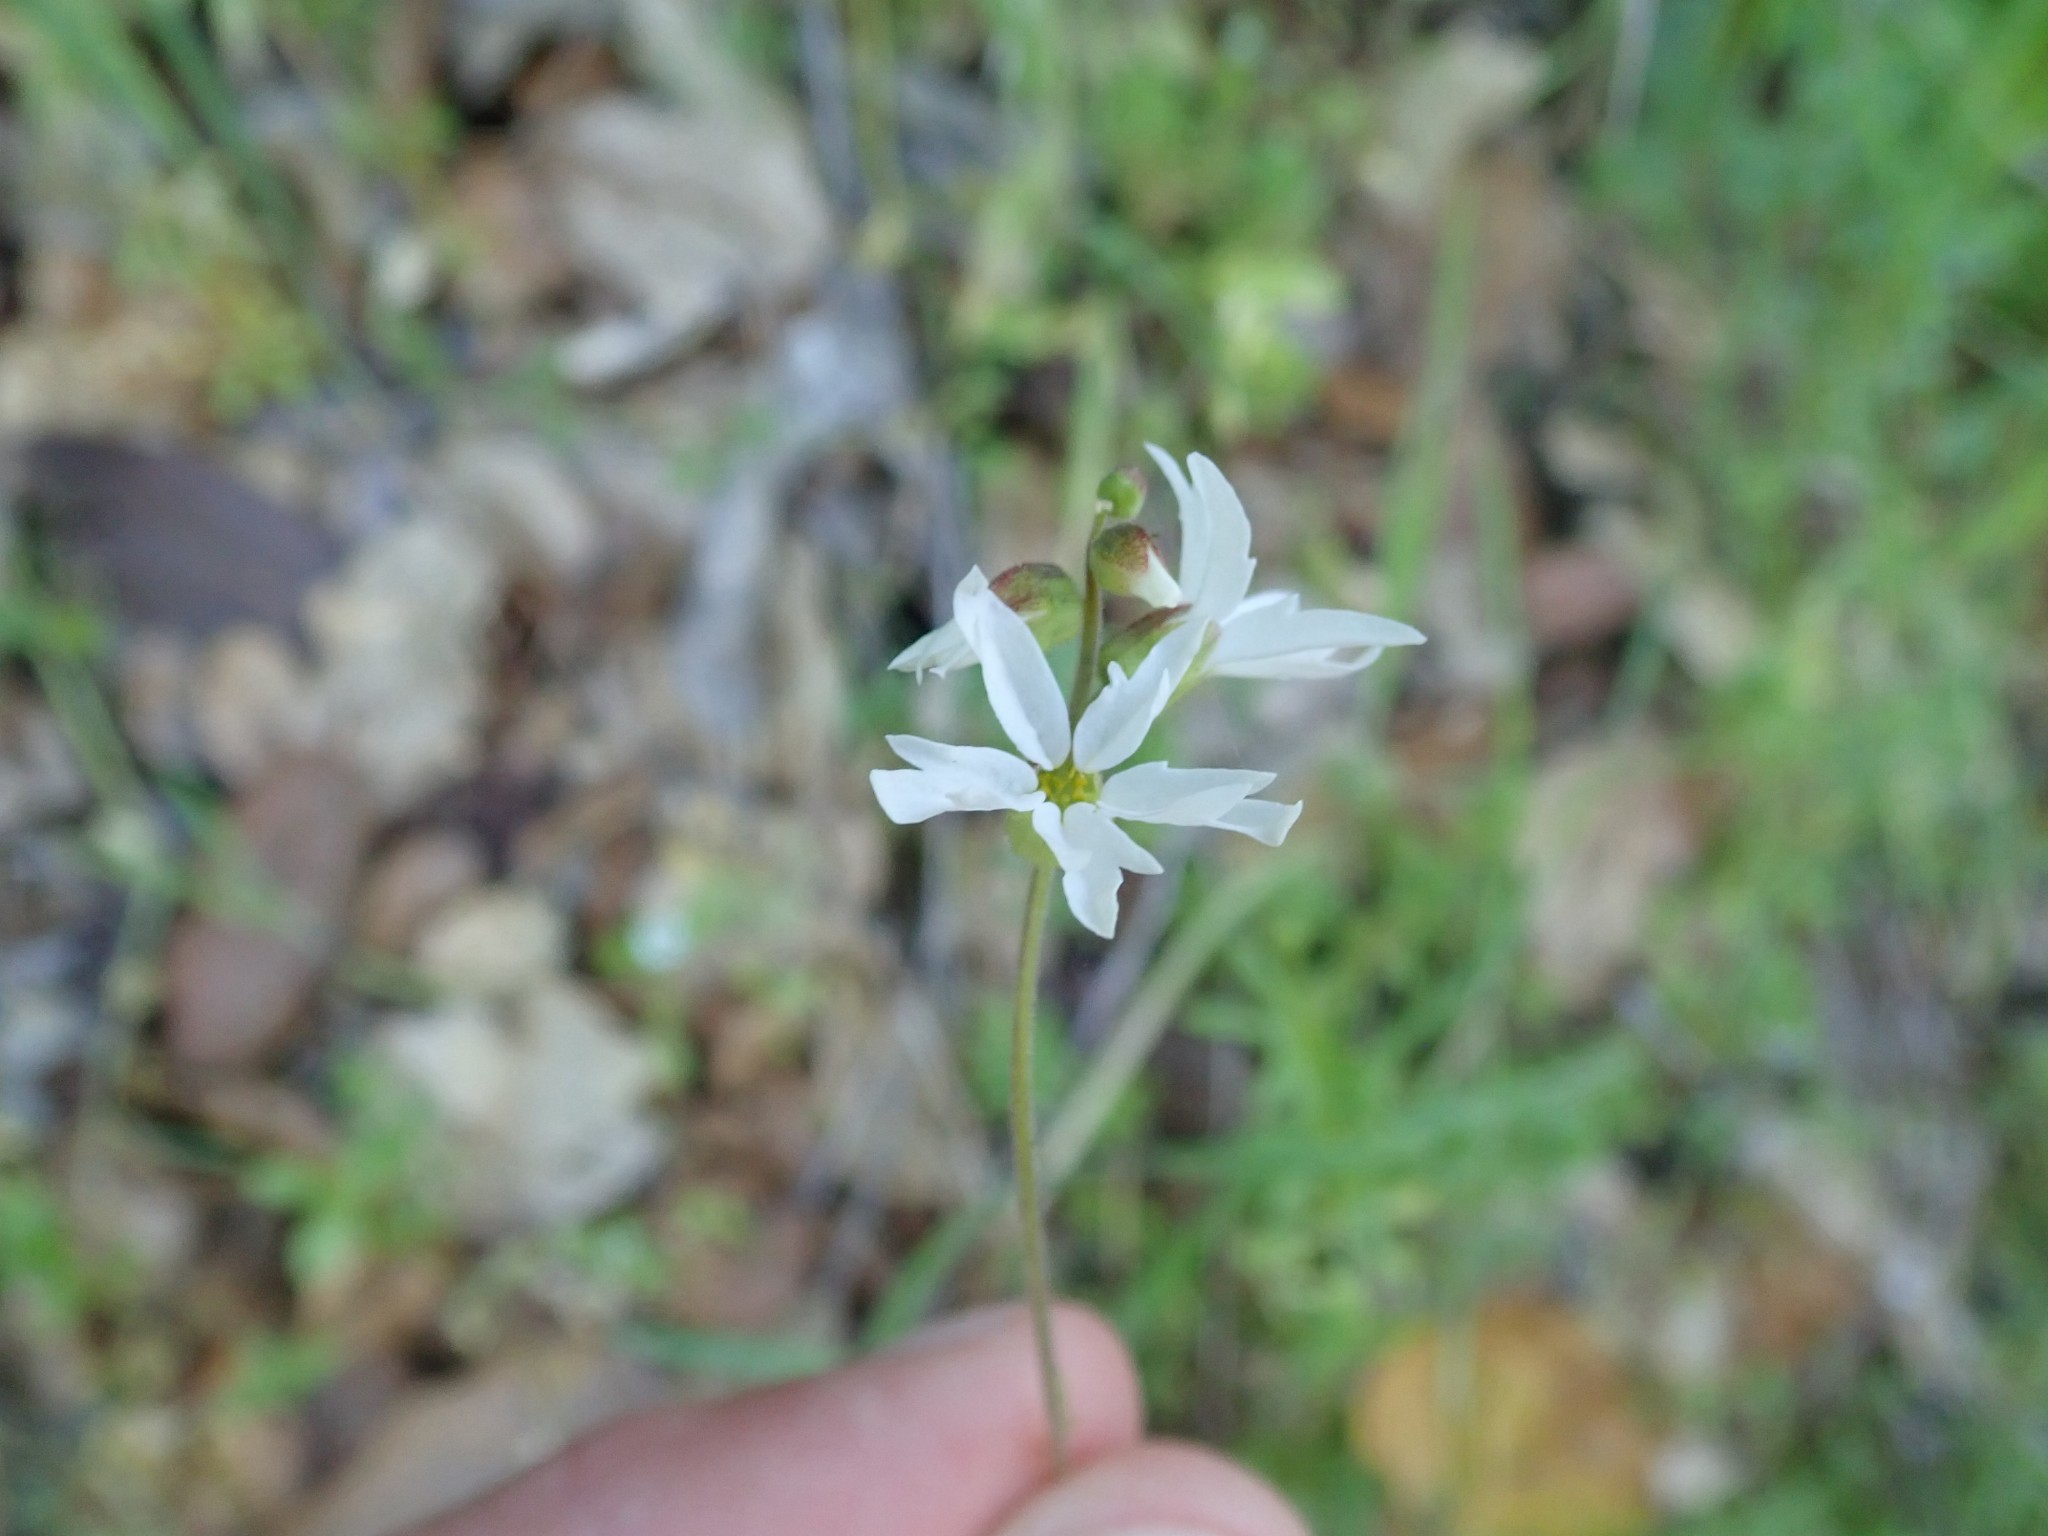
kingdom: Plantae
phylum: Tracheophyta
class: Magnoliopsida
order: Saxifragales
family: Saxifragaceae
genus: Lithophragma
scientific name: Lithophragma heterophyllum
